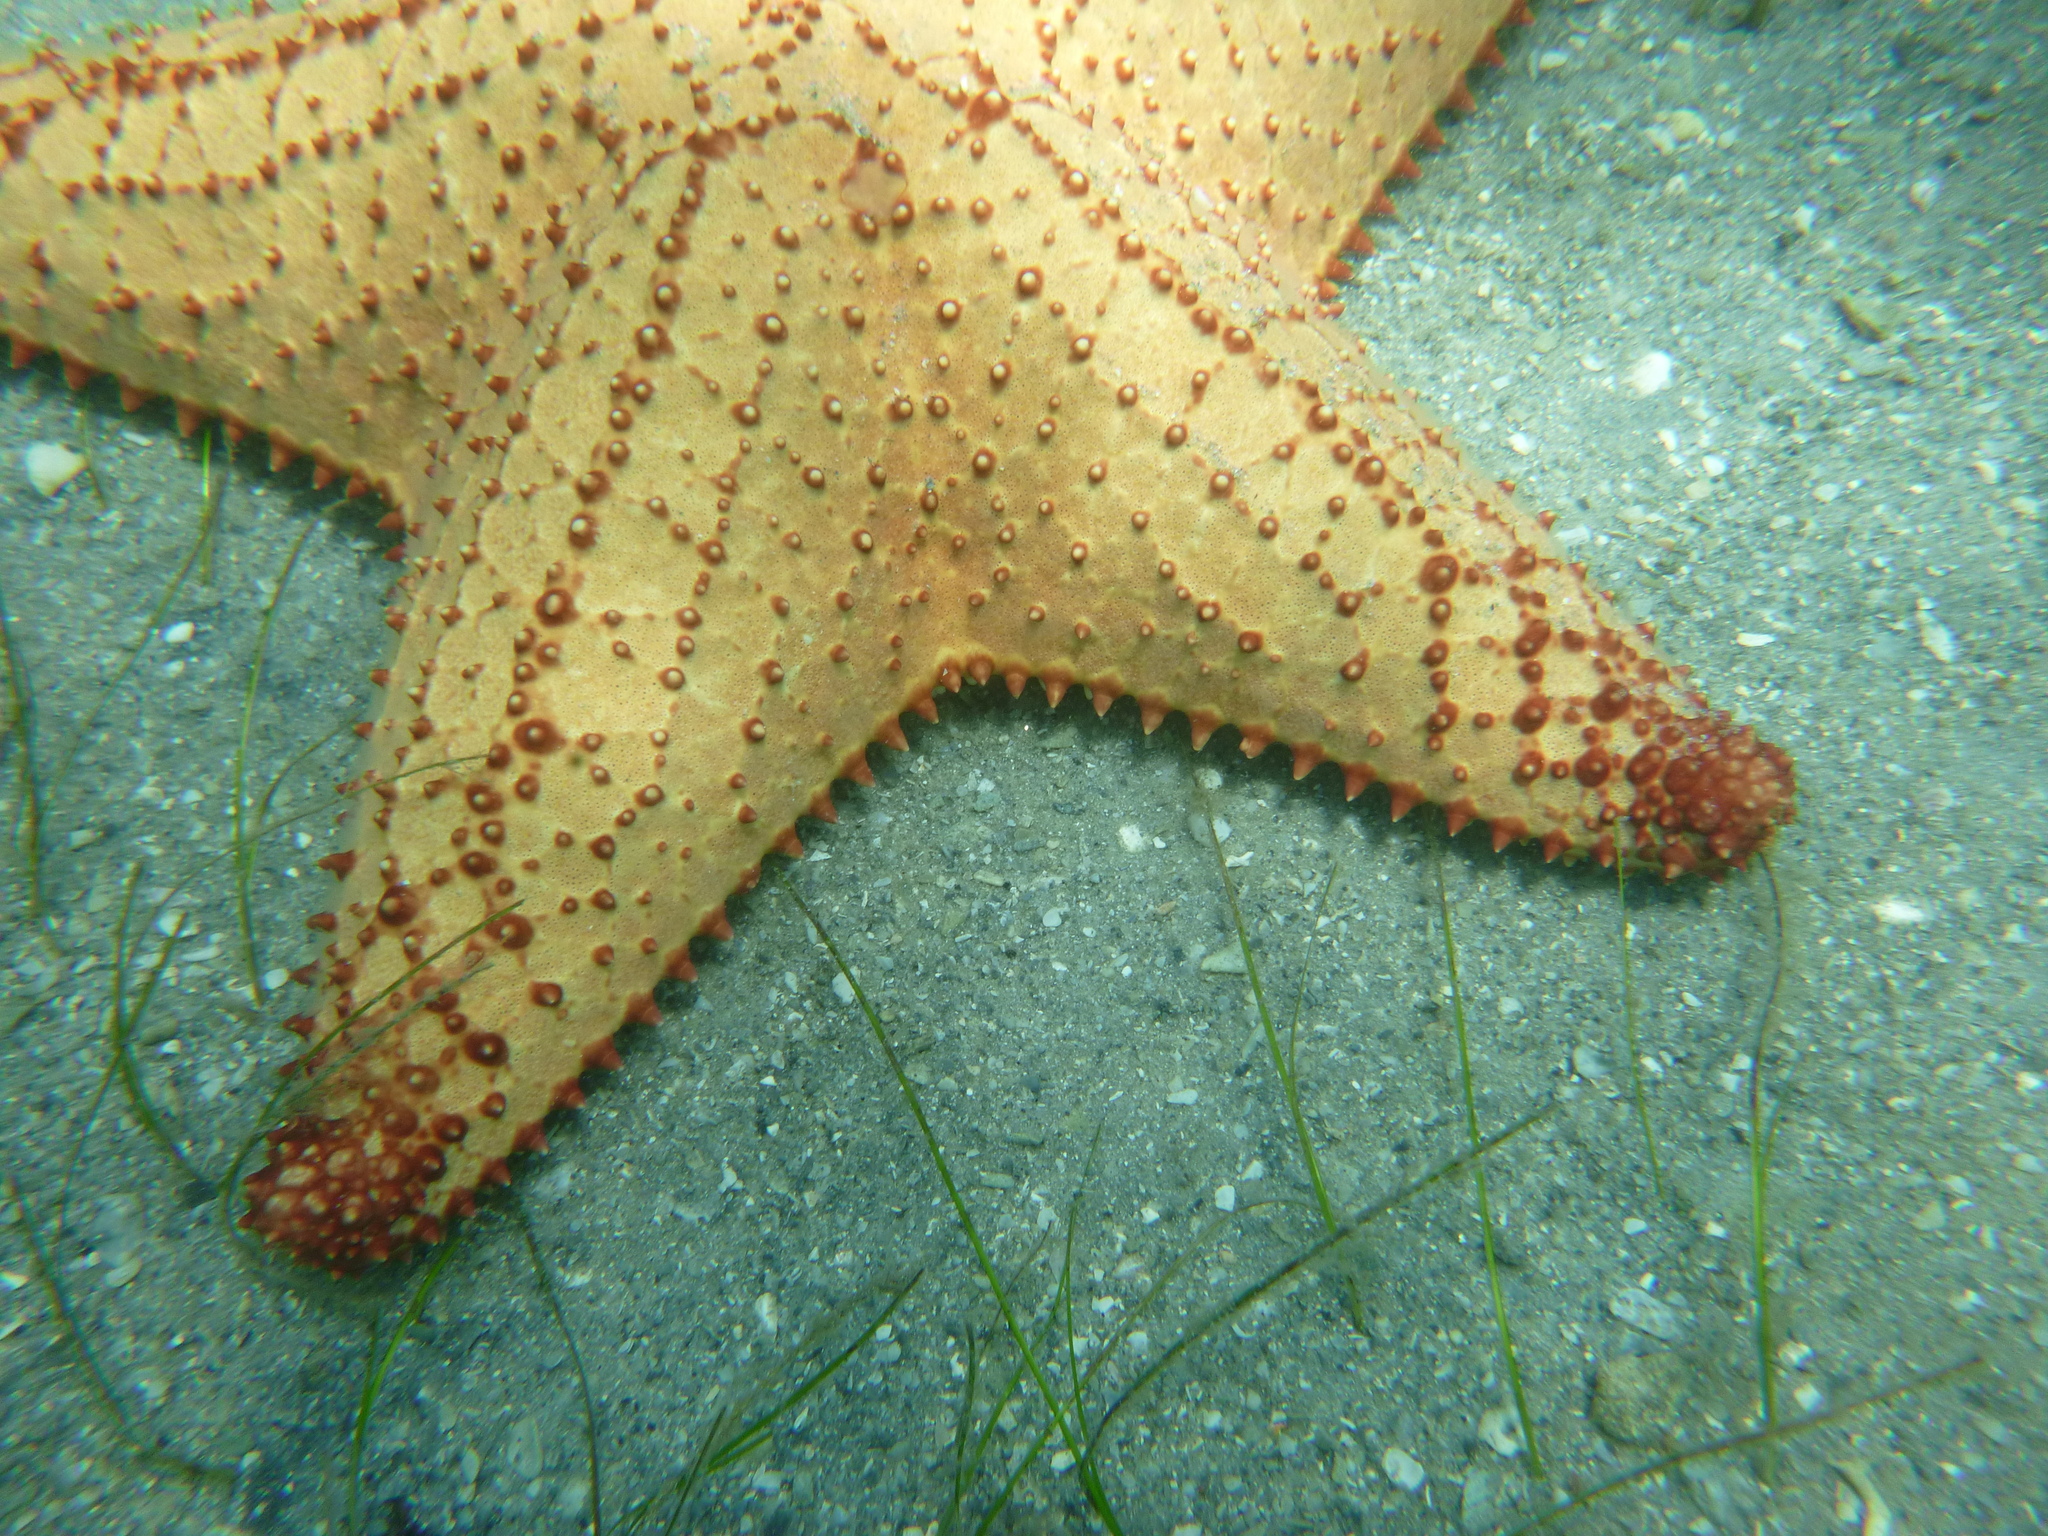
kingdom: Animalia
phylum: Echinodermata
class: Asteroidea
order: Valvatida
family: Oreasteridae
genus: Oreaster
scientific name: Oreaster reticulatus
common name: Cushion sea star
